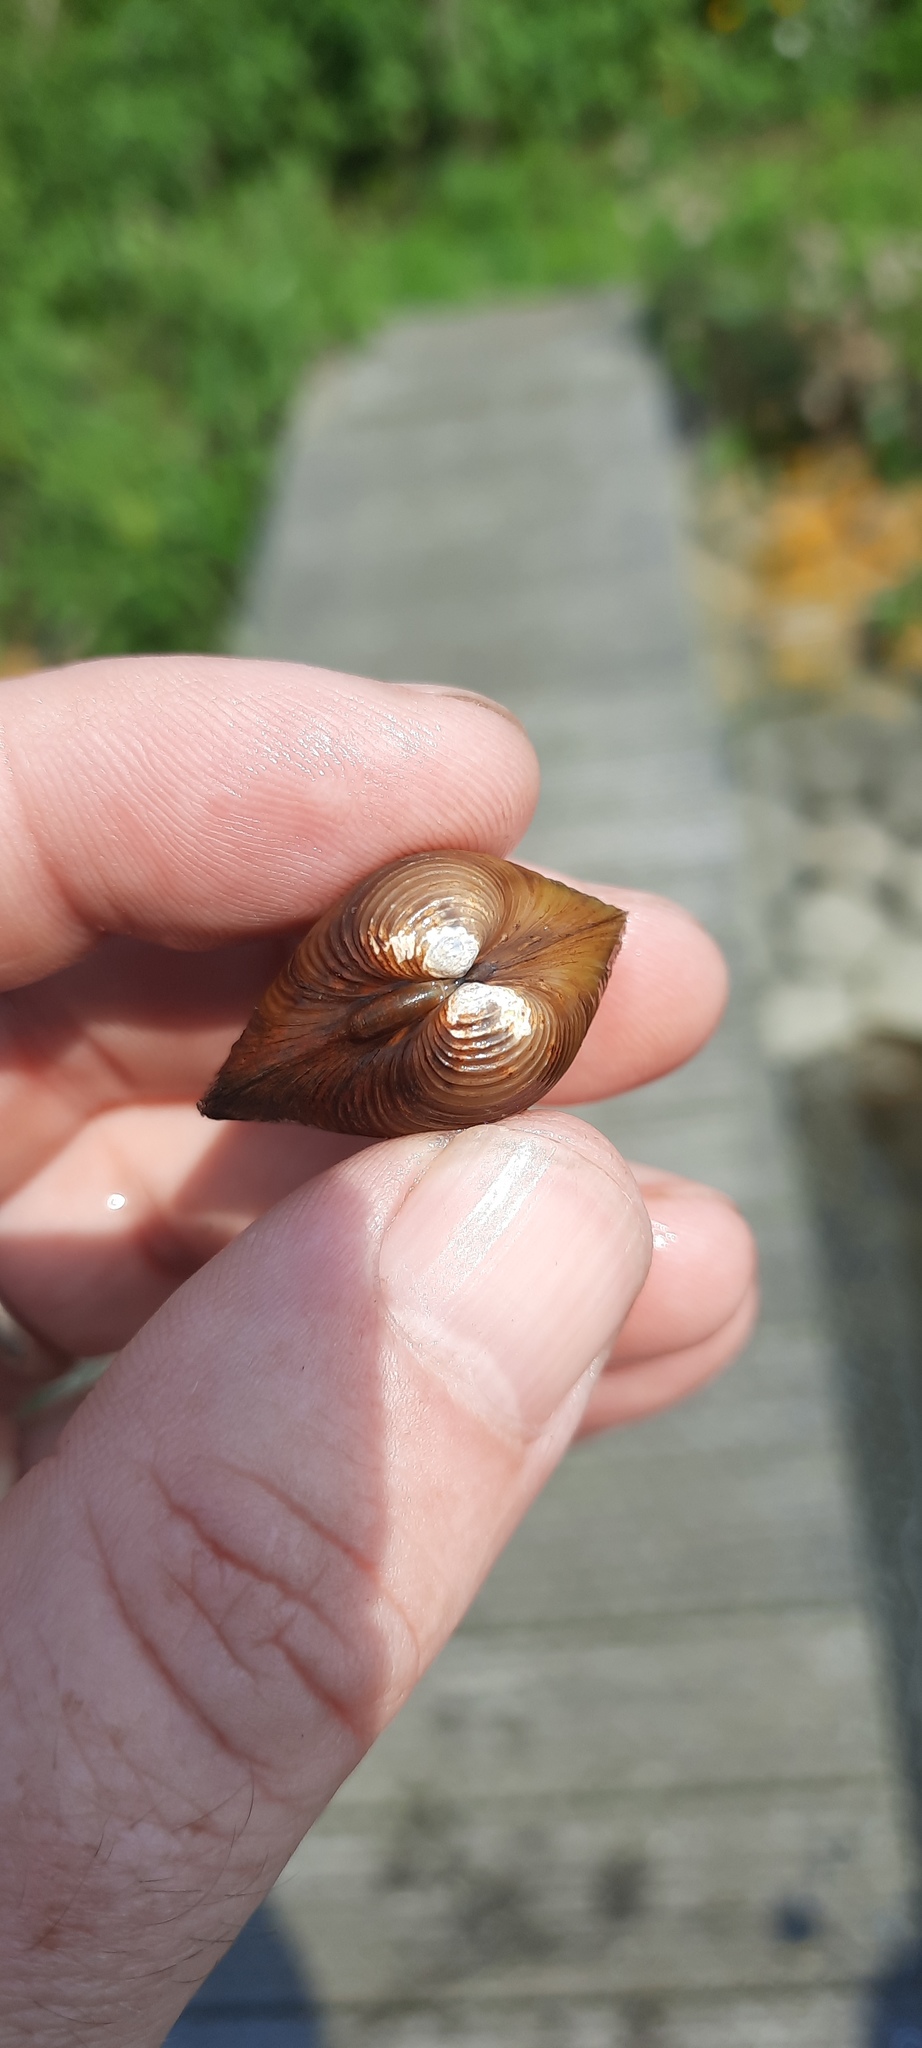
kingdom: Animalia
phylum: Mollusca
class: Bivalvia
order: Venerida
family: Cyrenidae
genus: Corbicula
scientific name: Corbicula fluminea
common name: Asian clam
